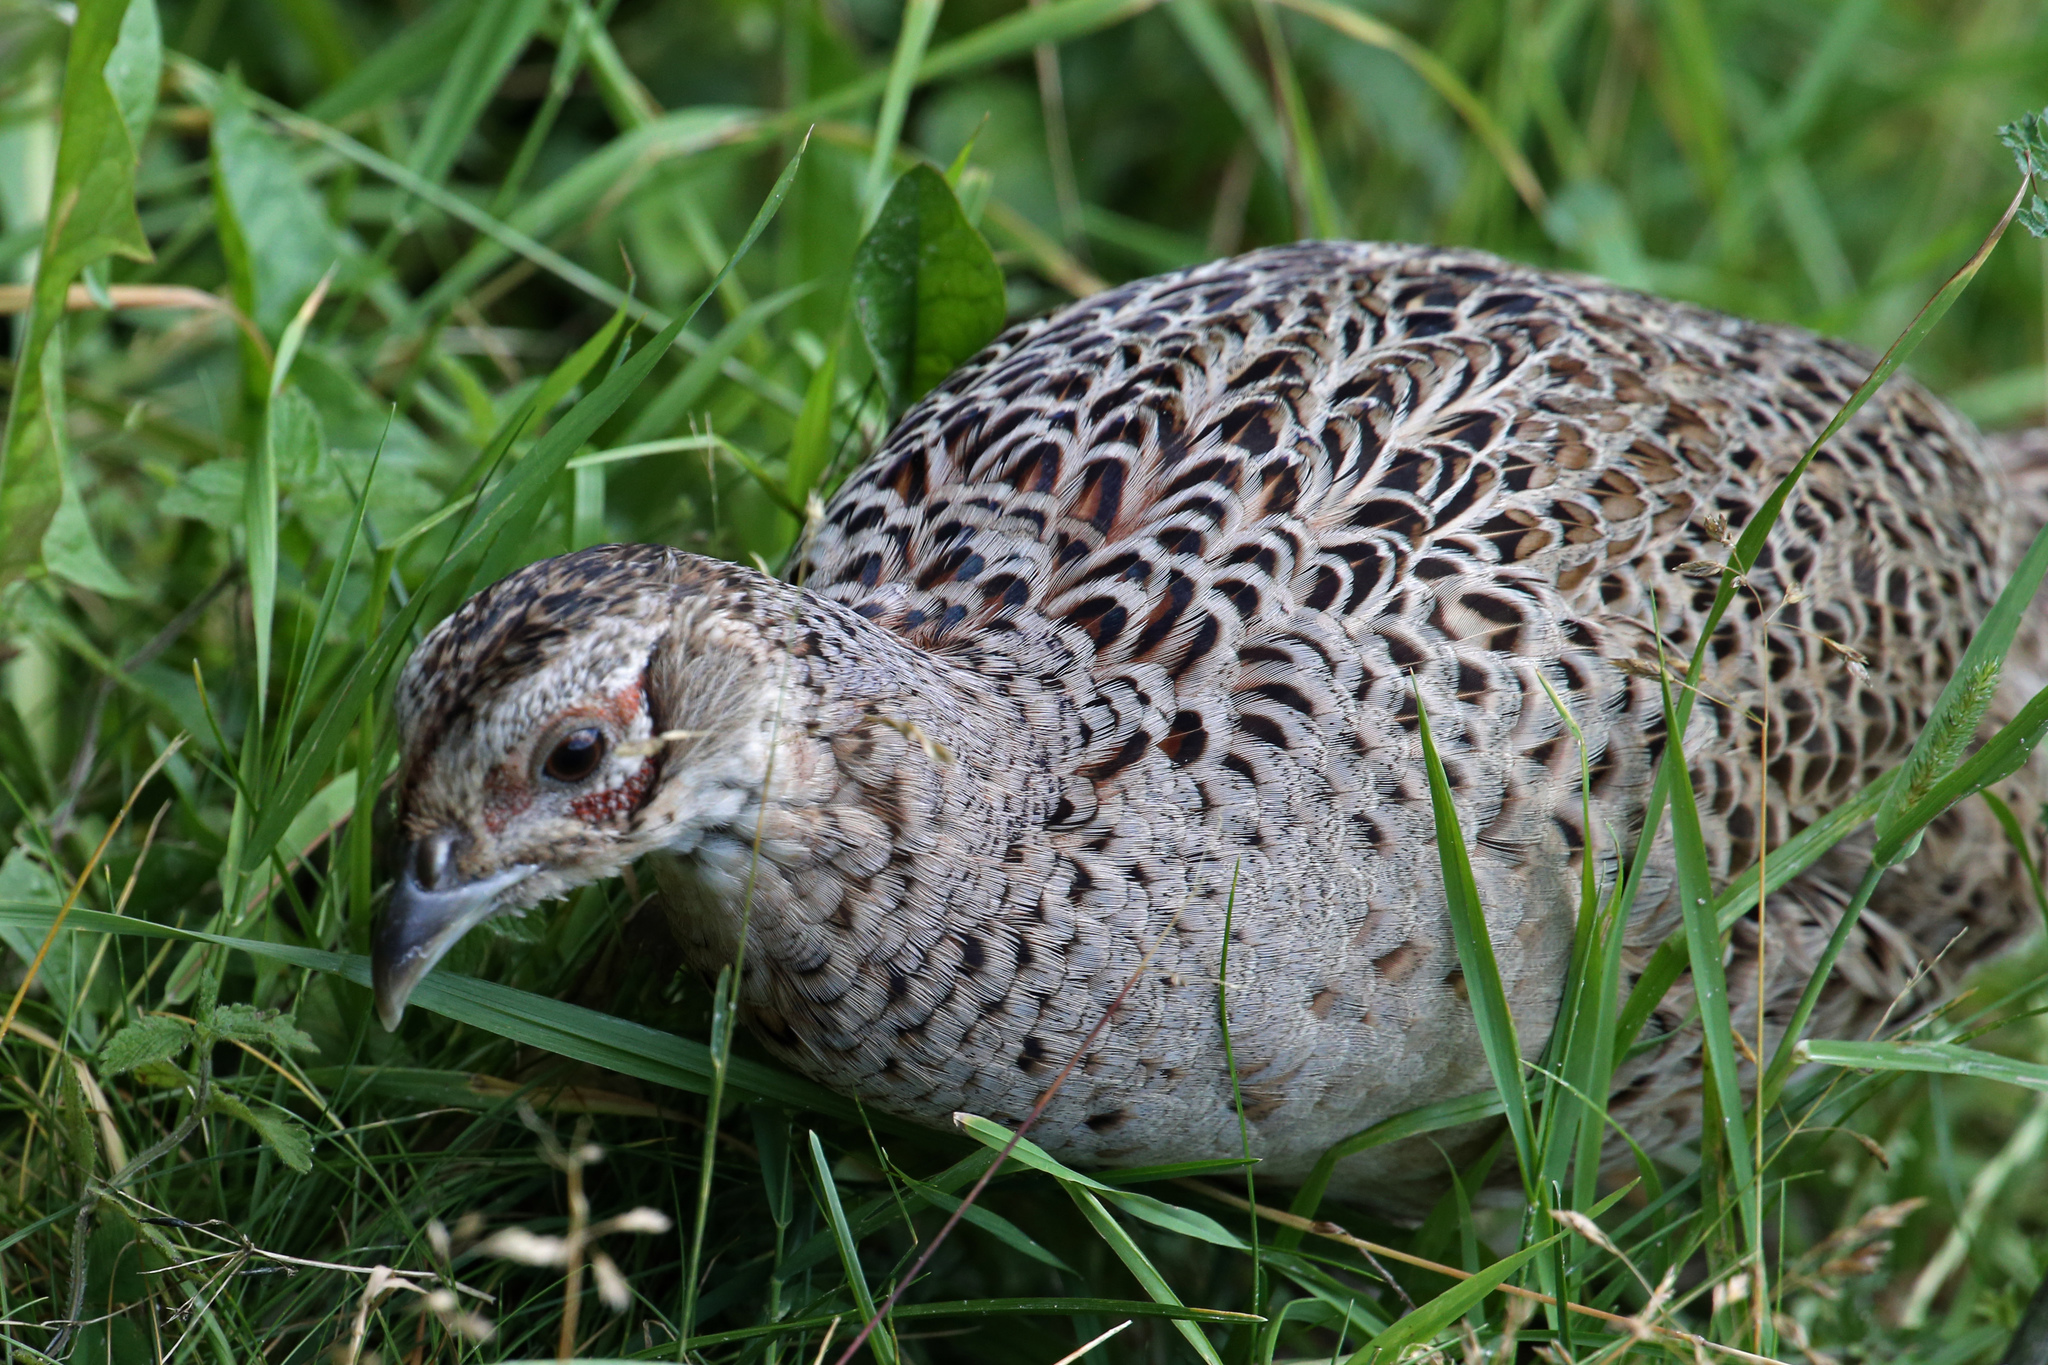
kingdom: Animalia
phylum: Chordata
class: Aves
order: Galliformes
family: Phasianidae
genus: Phasianus
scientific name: Phasianus colchicus
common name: Common pheasant
